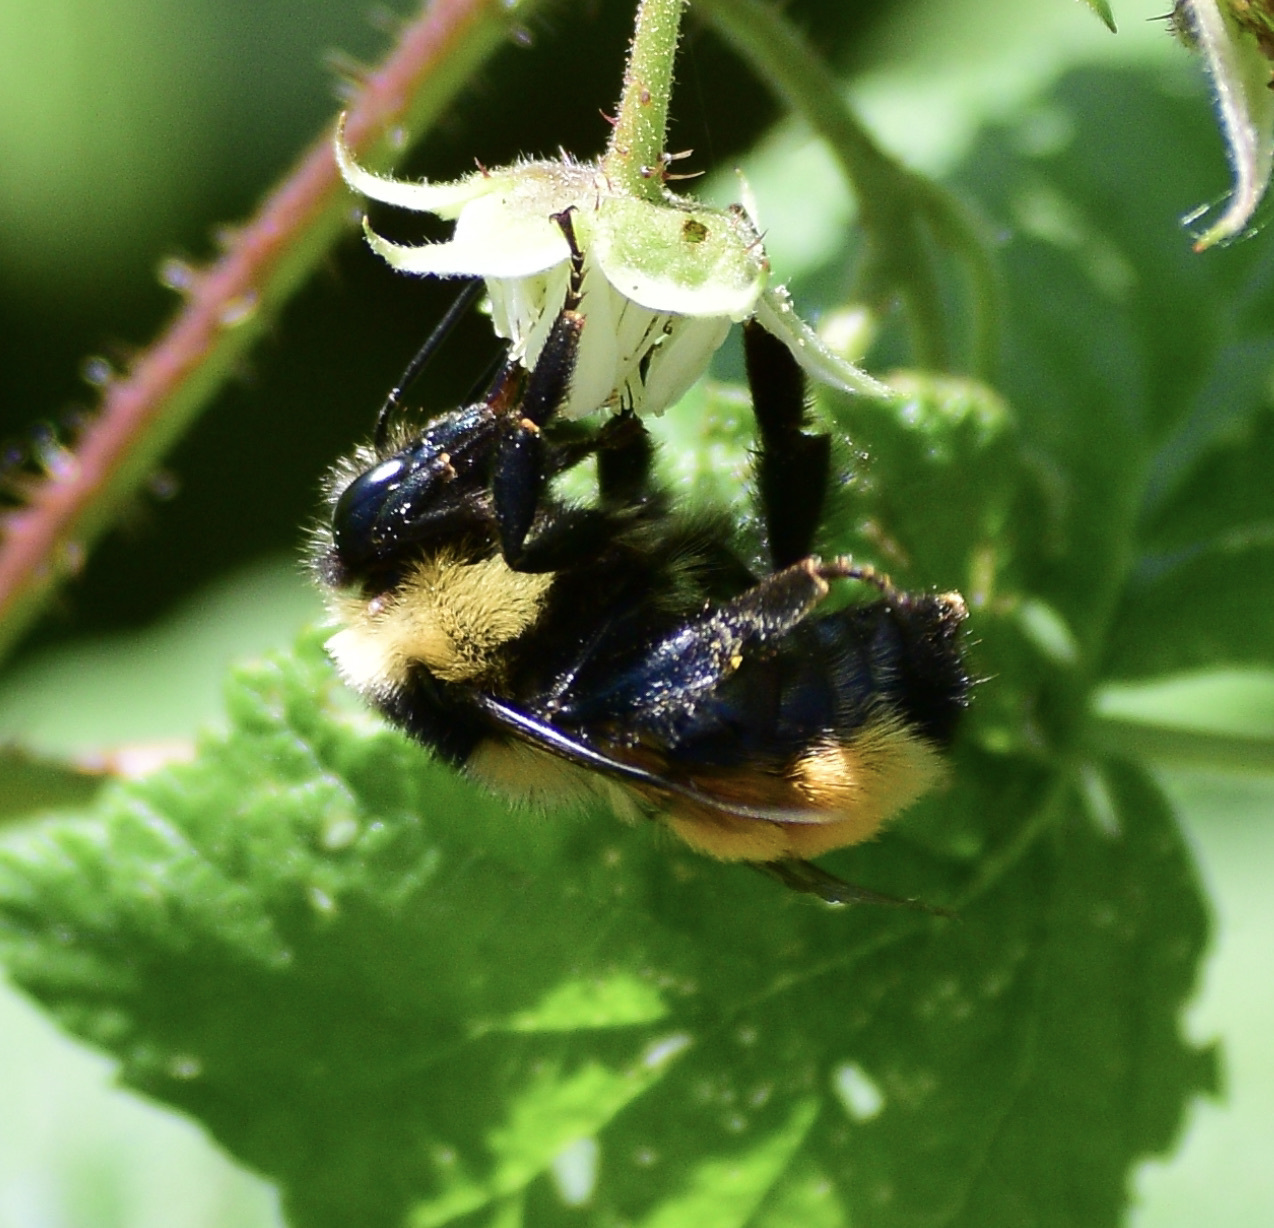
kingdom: Animalia
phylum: Arthropoda
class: Insecta
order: Hymenoptera
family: Apidae
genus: Bombus
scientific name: Bombus ternarius
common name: Tri-colored bumble bee
